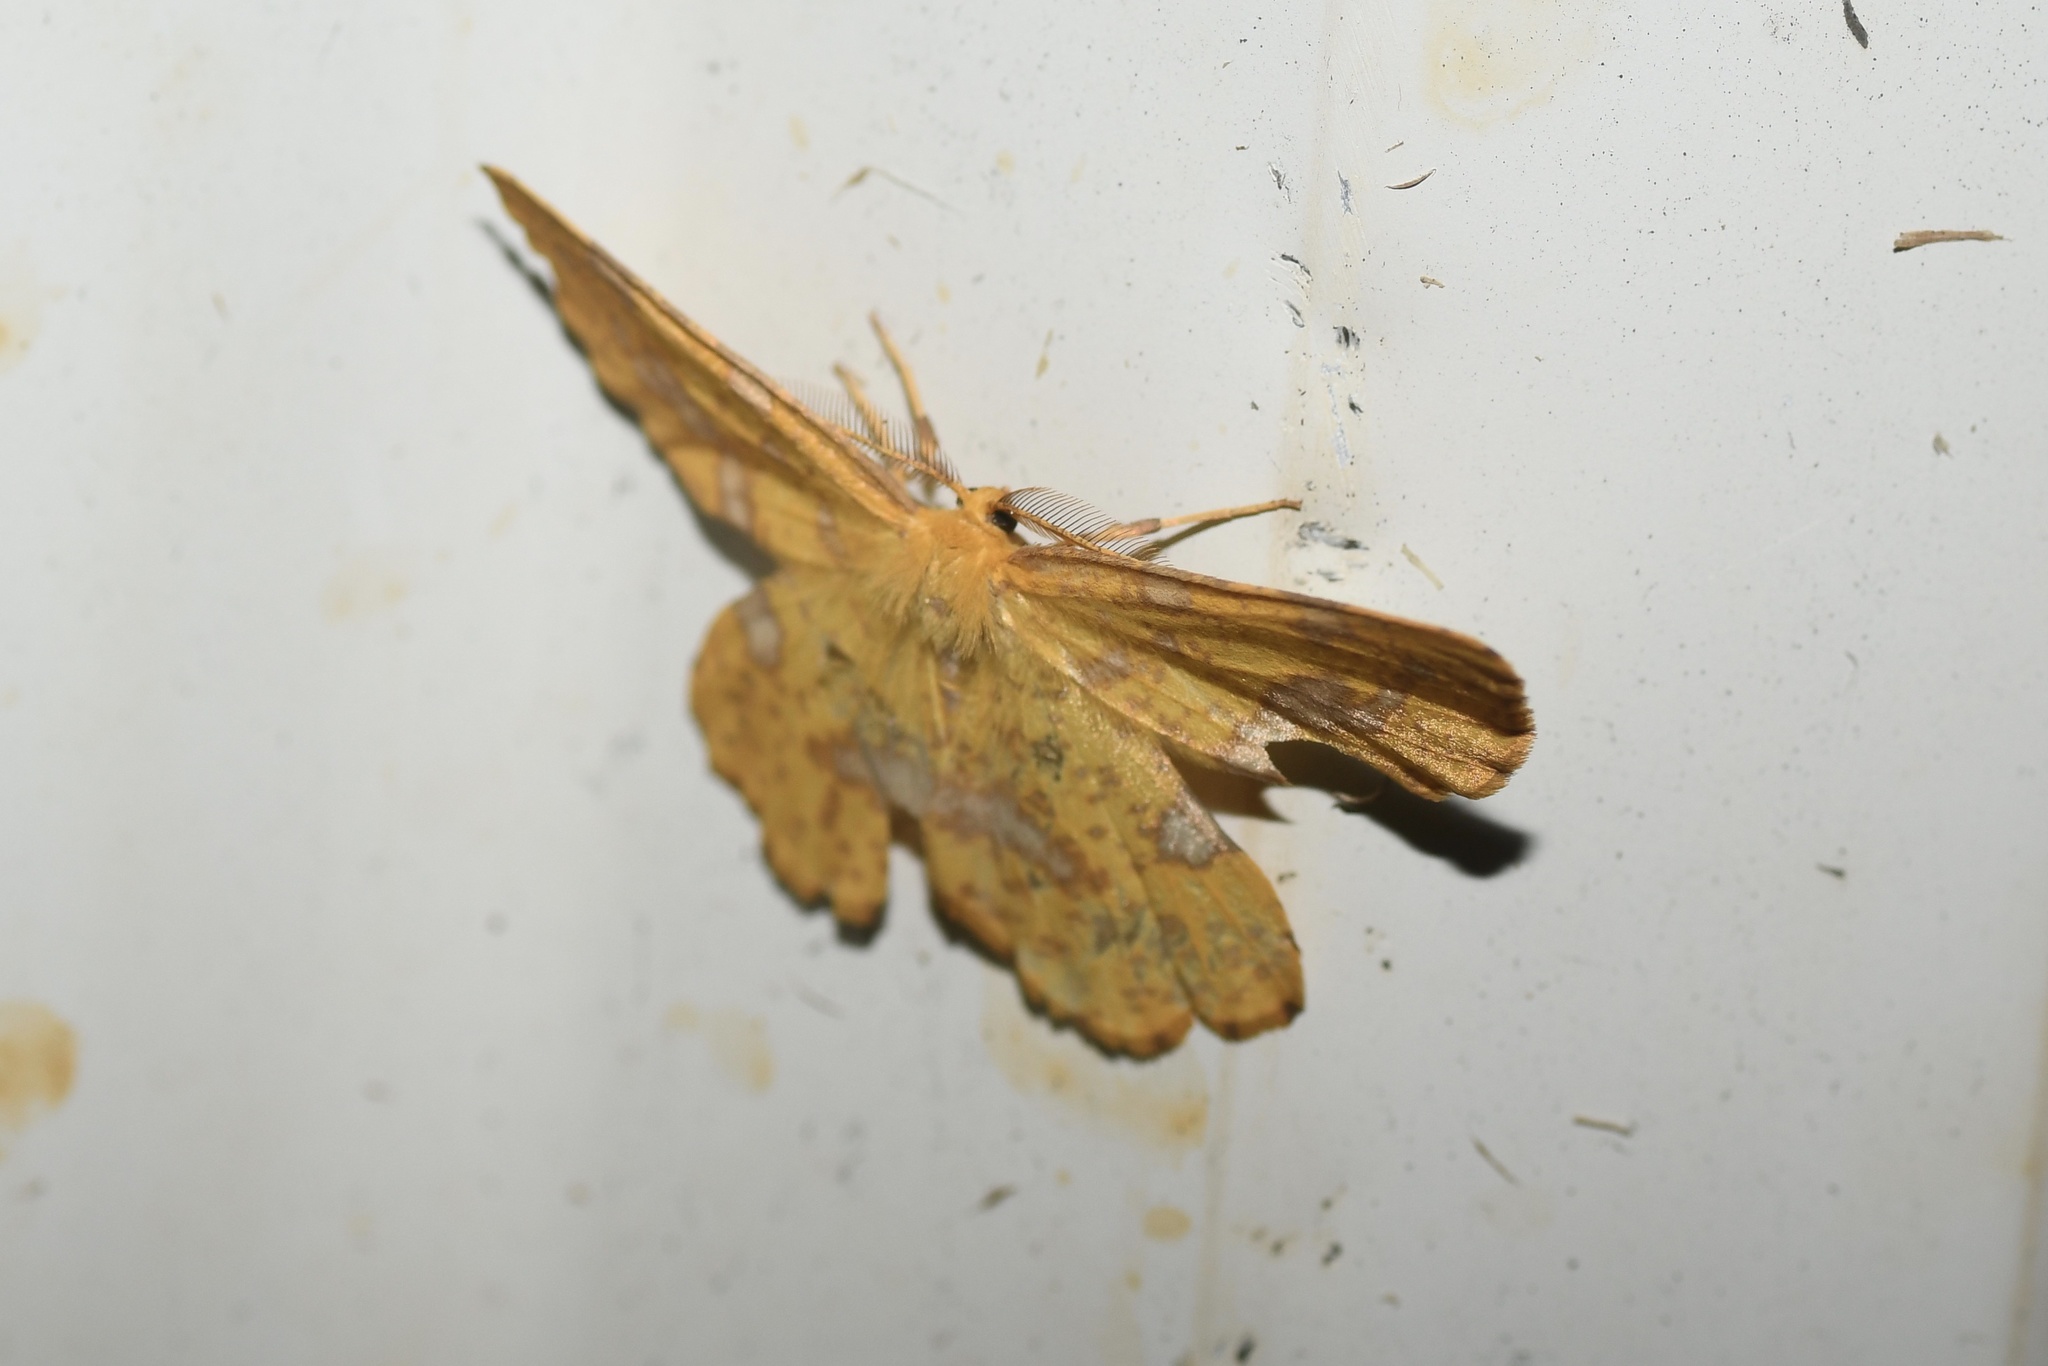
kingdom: Animalia
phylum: Arthropoda
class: Insecta
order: Lepidoptera
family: Geometridae
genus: Xanthotype
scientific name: Xanthotype
